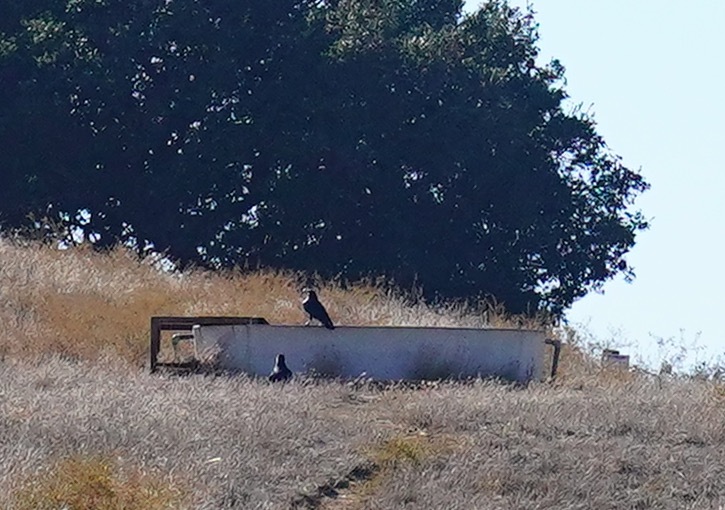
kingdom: Animalia
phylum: Chordata
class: Aves
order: Passeriformes
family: Corvidae
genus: Corvus
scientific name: Corvus corax
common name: Common raven
